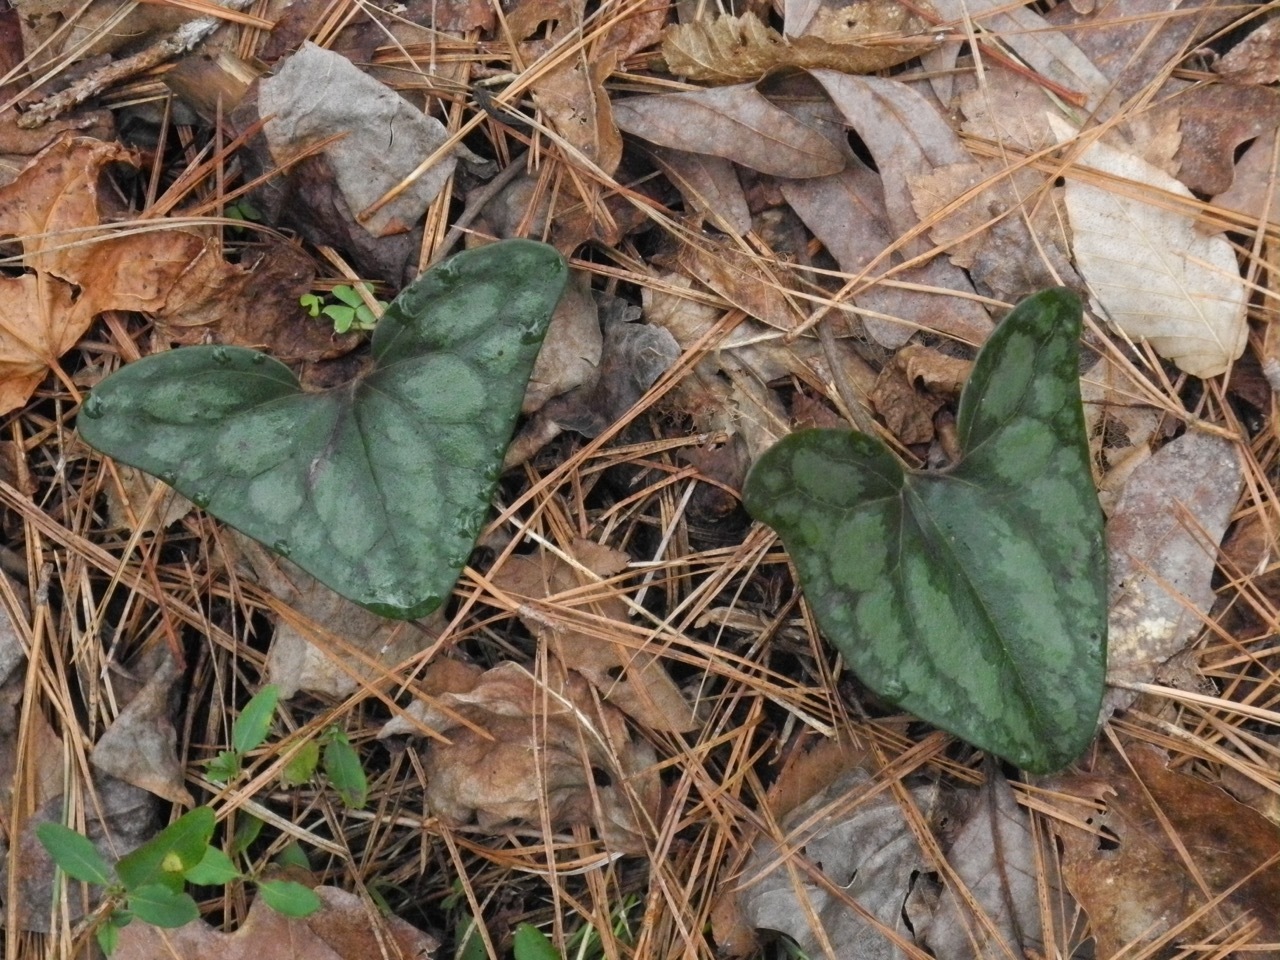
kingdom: Plantae
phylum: Tracheophyta
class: Magnoliopsida
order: Piperales
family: Aristolochiaceae
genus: Hexastylis
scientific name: Hexastylis arifolia
